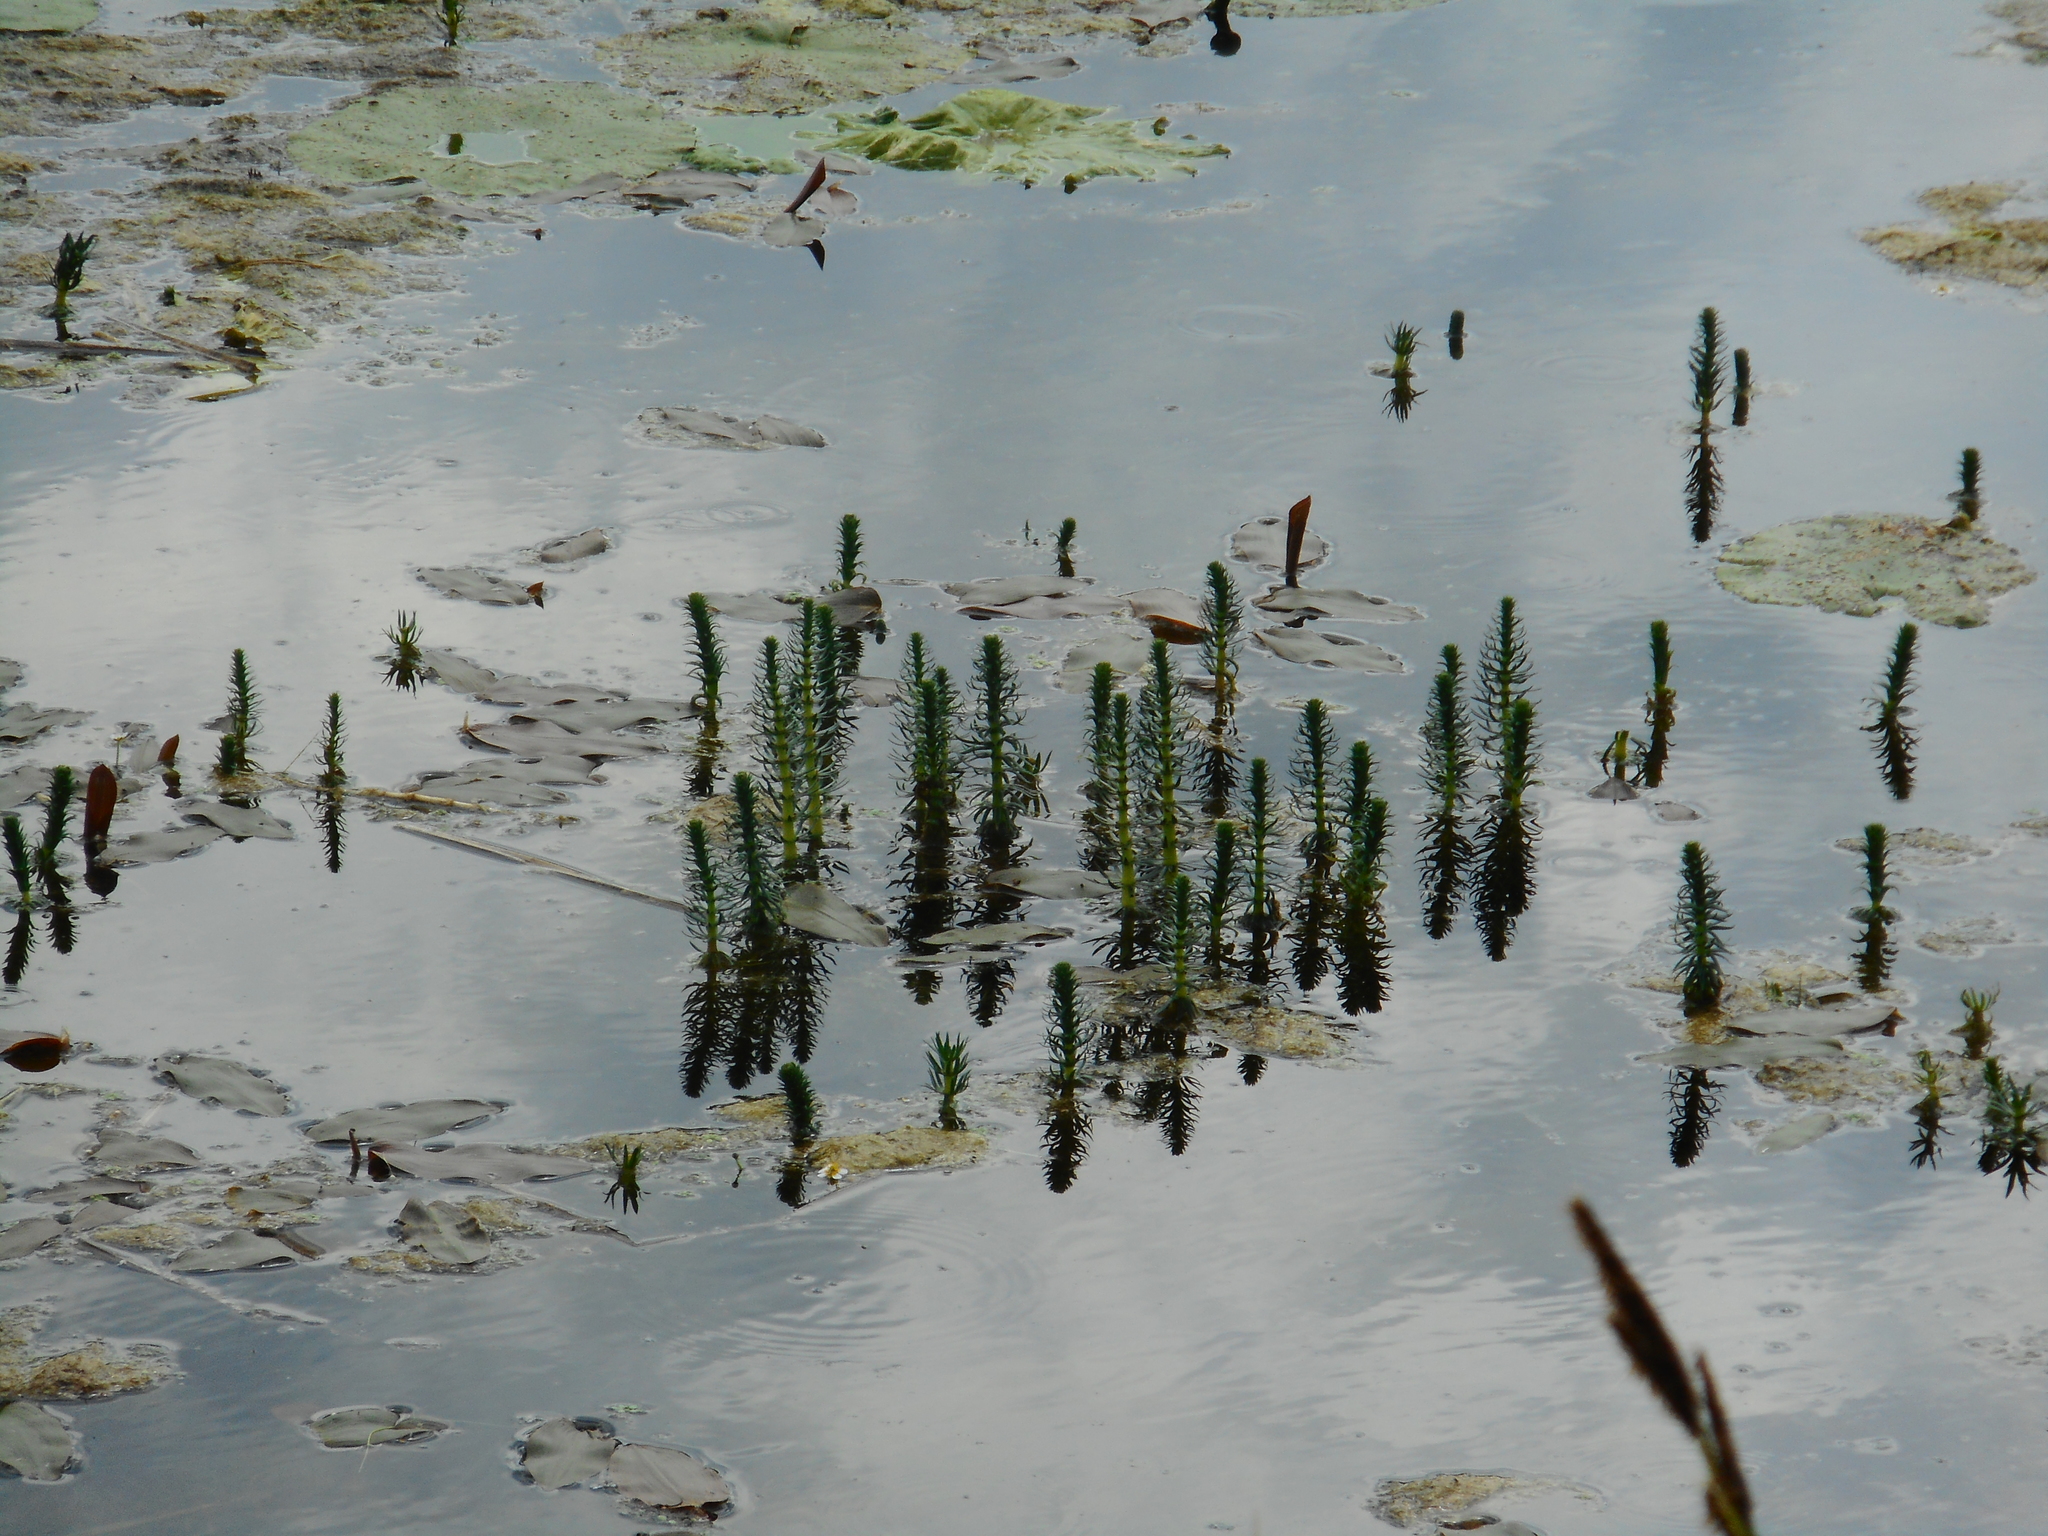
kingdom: Plantae
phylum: Tracheophyta
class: Magnoliopsida
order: Lamiales
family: Plantaginaceae
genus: Hippuris
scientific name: Hippuris vulgaris
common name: Mare's-tail
